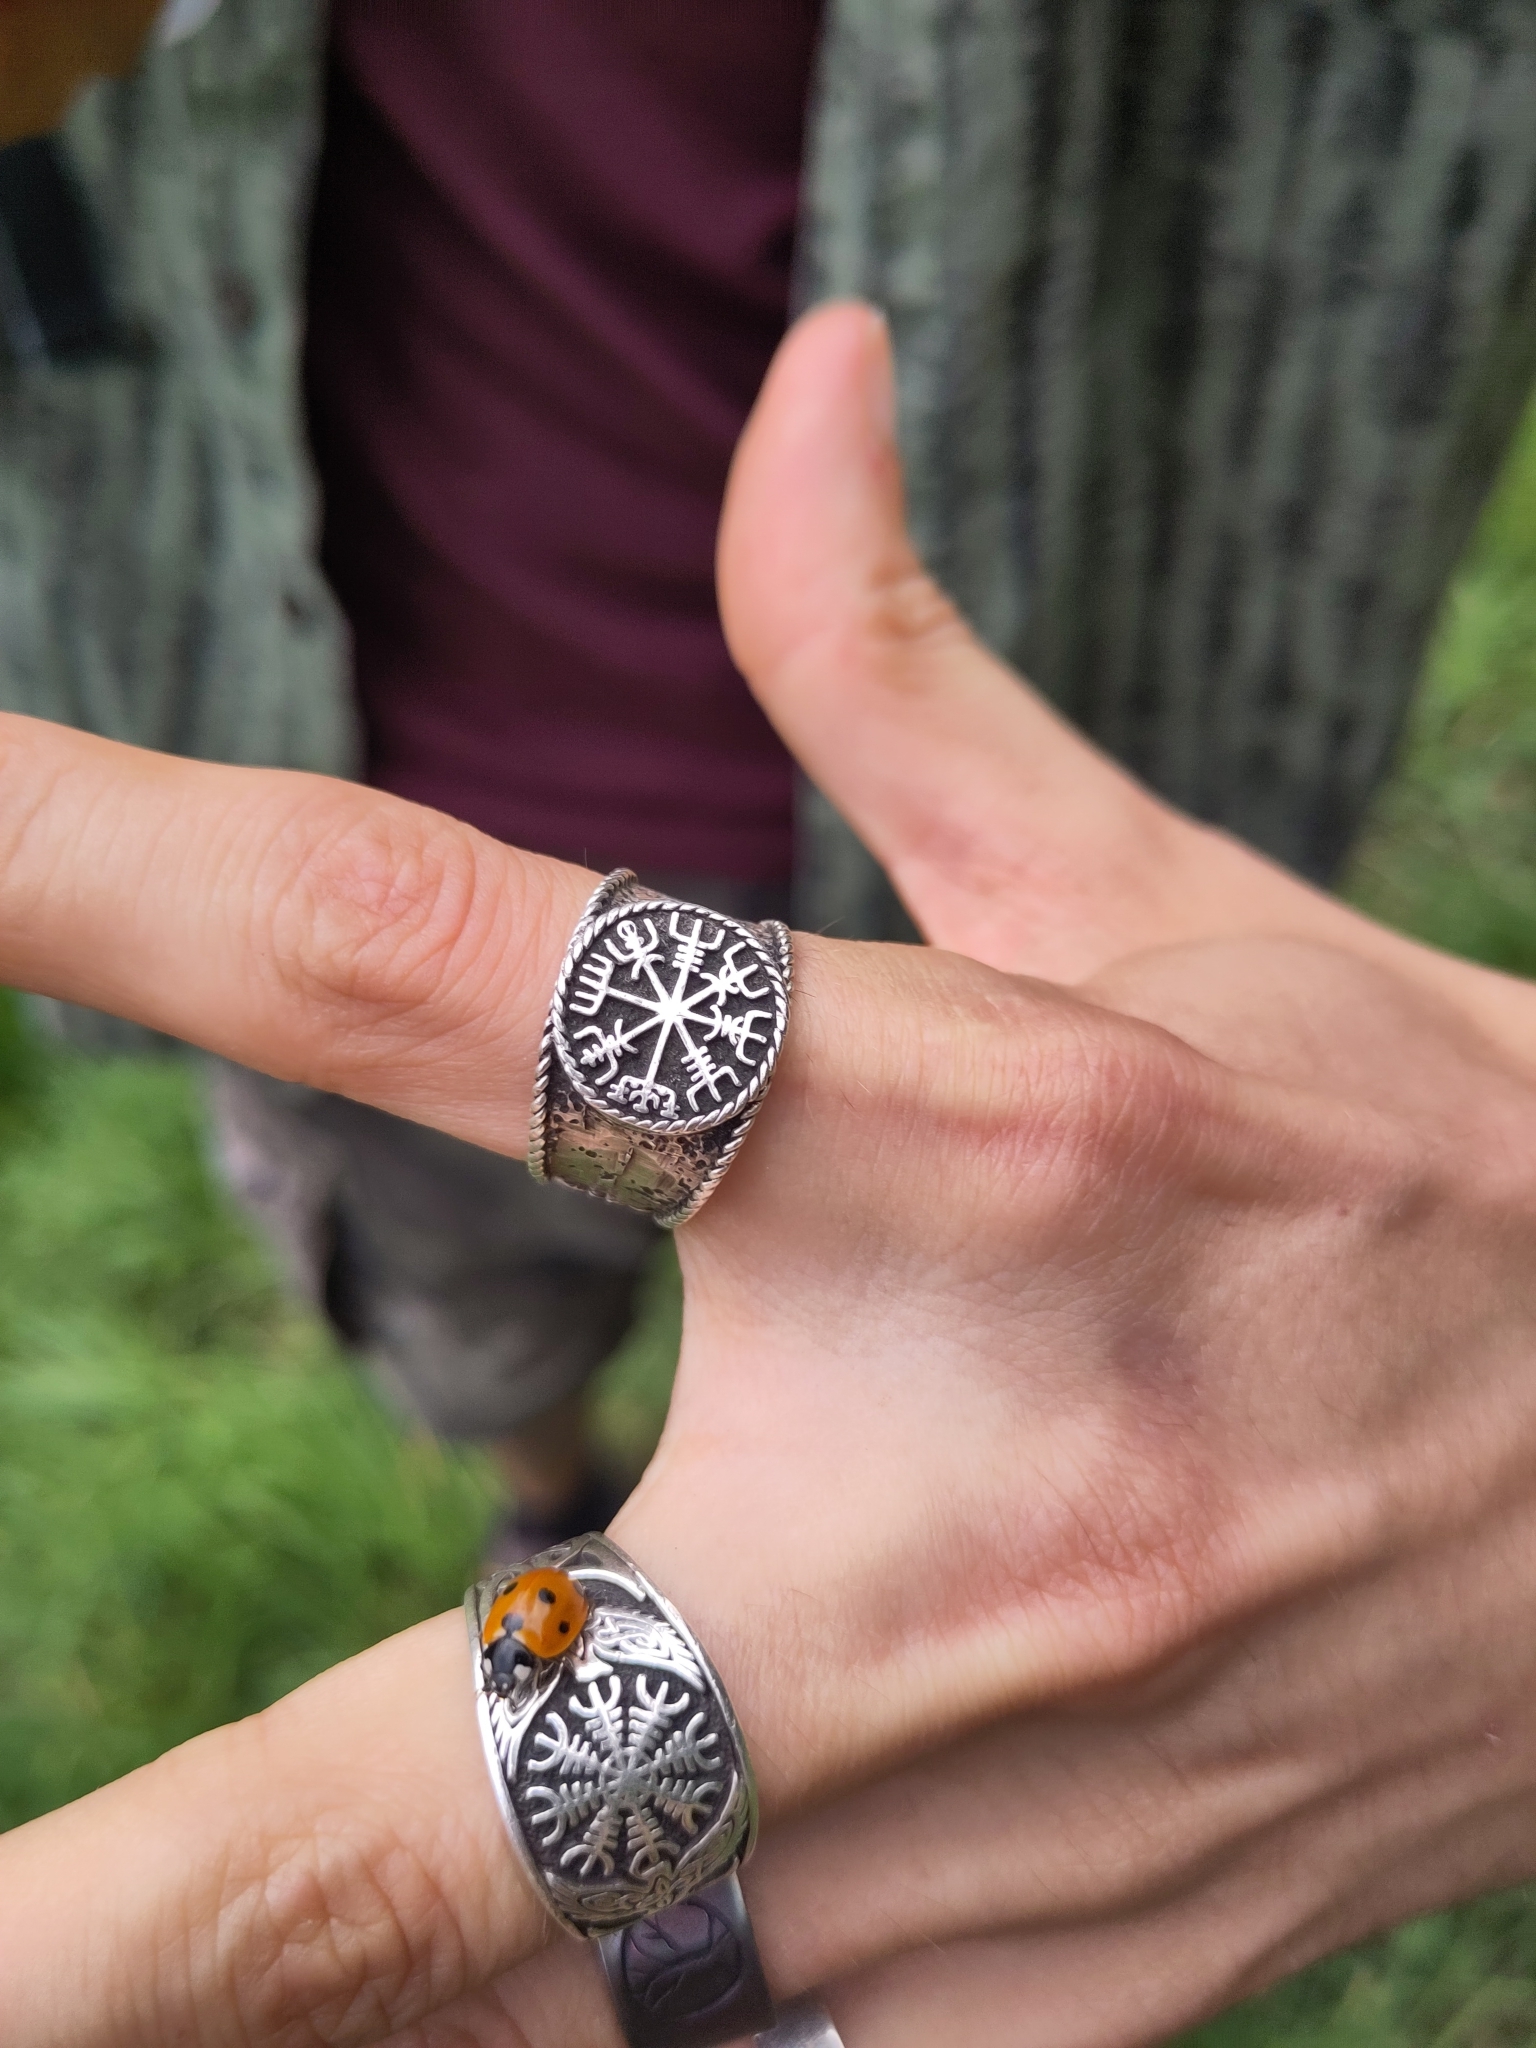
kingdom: Animalia
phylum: Arthropoda
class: Insecta
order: Coleoptera
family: Coccinellidae
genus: Coccinella
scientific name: Coccinella septempunctata
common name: Sevenspotted lady beetle
